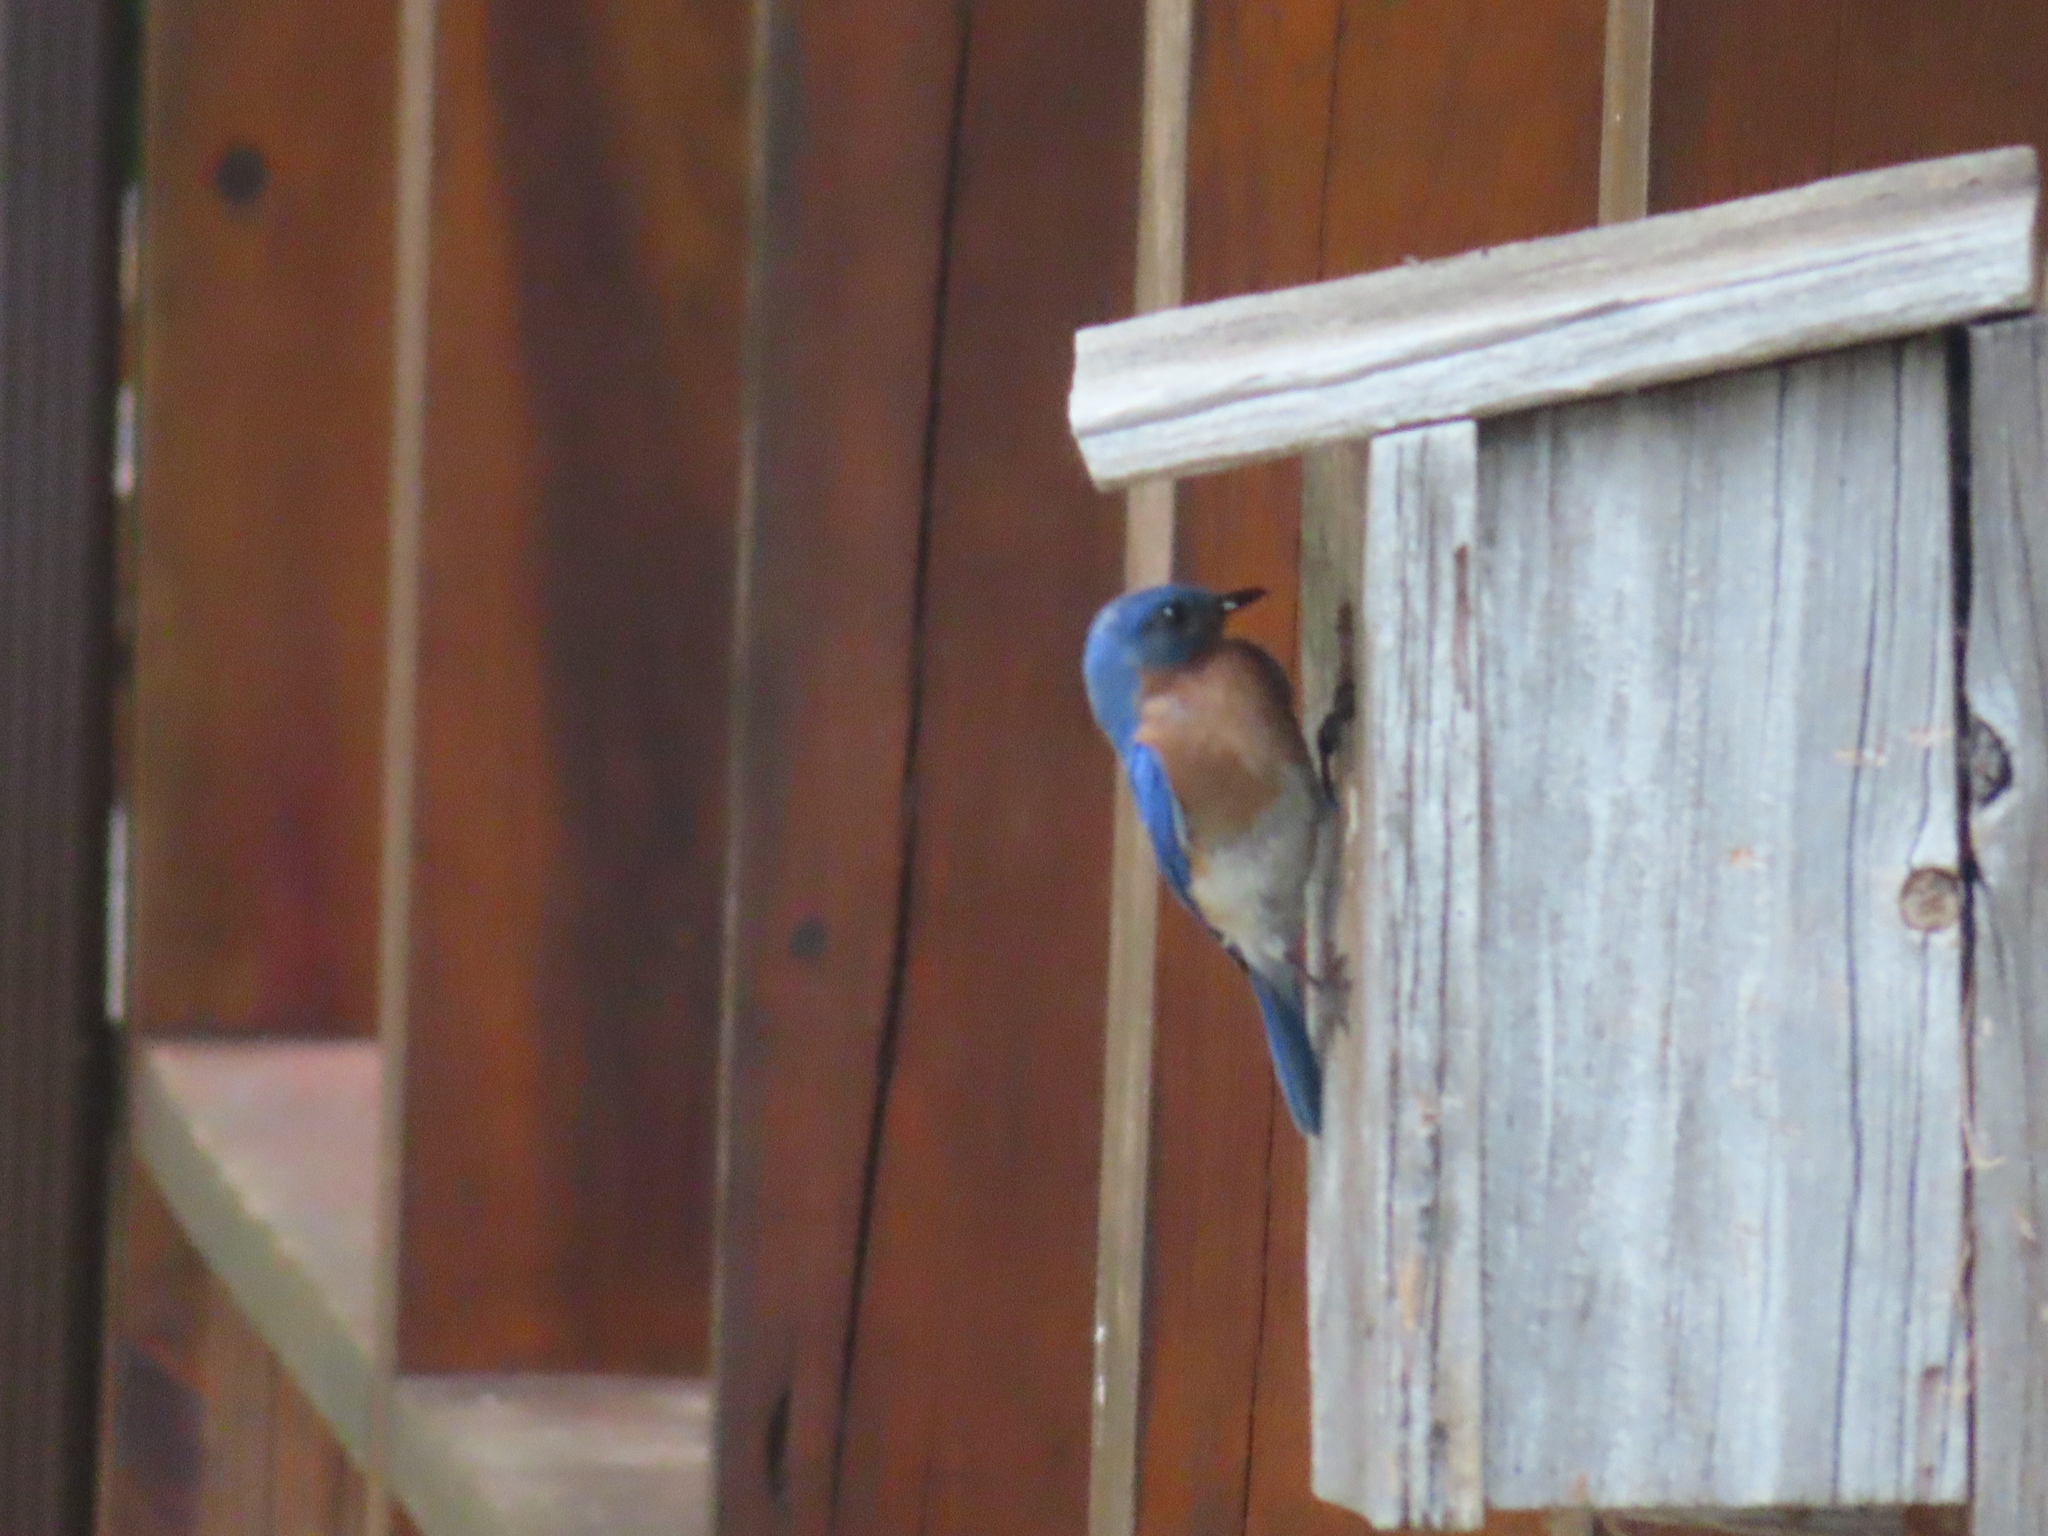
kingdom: Animalia
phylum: Chordata
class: Aves
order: Passeriformes
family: Turdidae
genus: Sialia
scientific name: Sialia sialis
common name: Eastern bluebird
